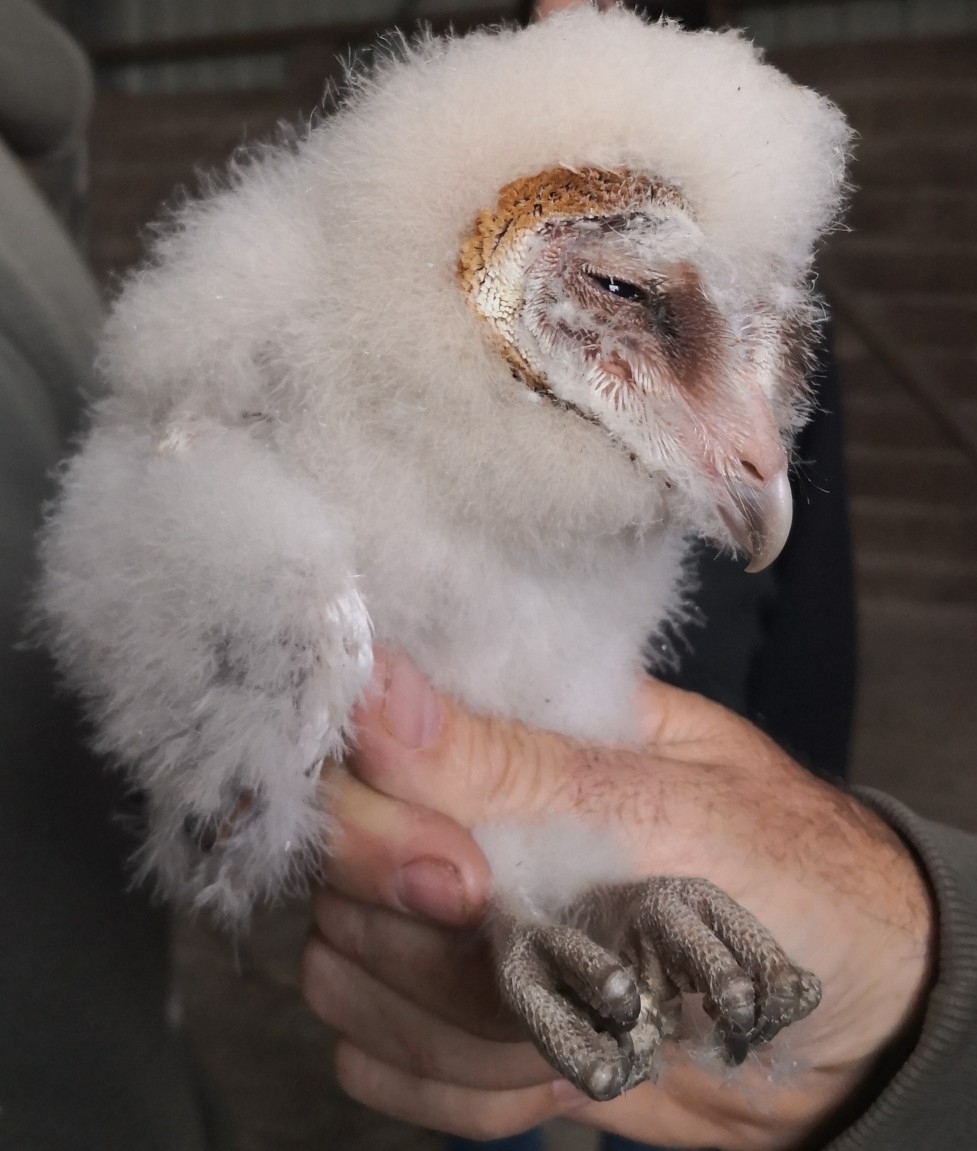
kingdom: Animalia
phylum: Chordata
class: Aves
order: Strigiformes
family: Tytonidae
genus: Tyto
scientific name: Tyto alba
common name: Barn owl
